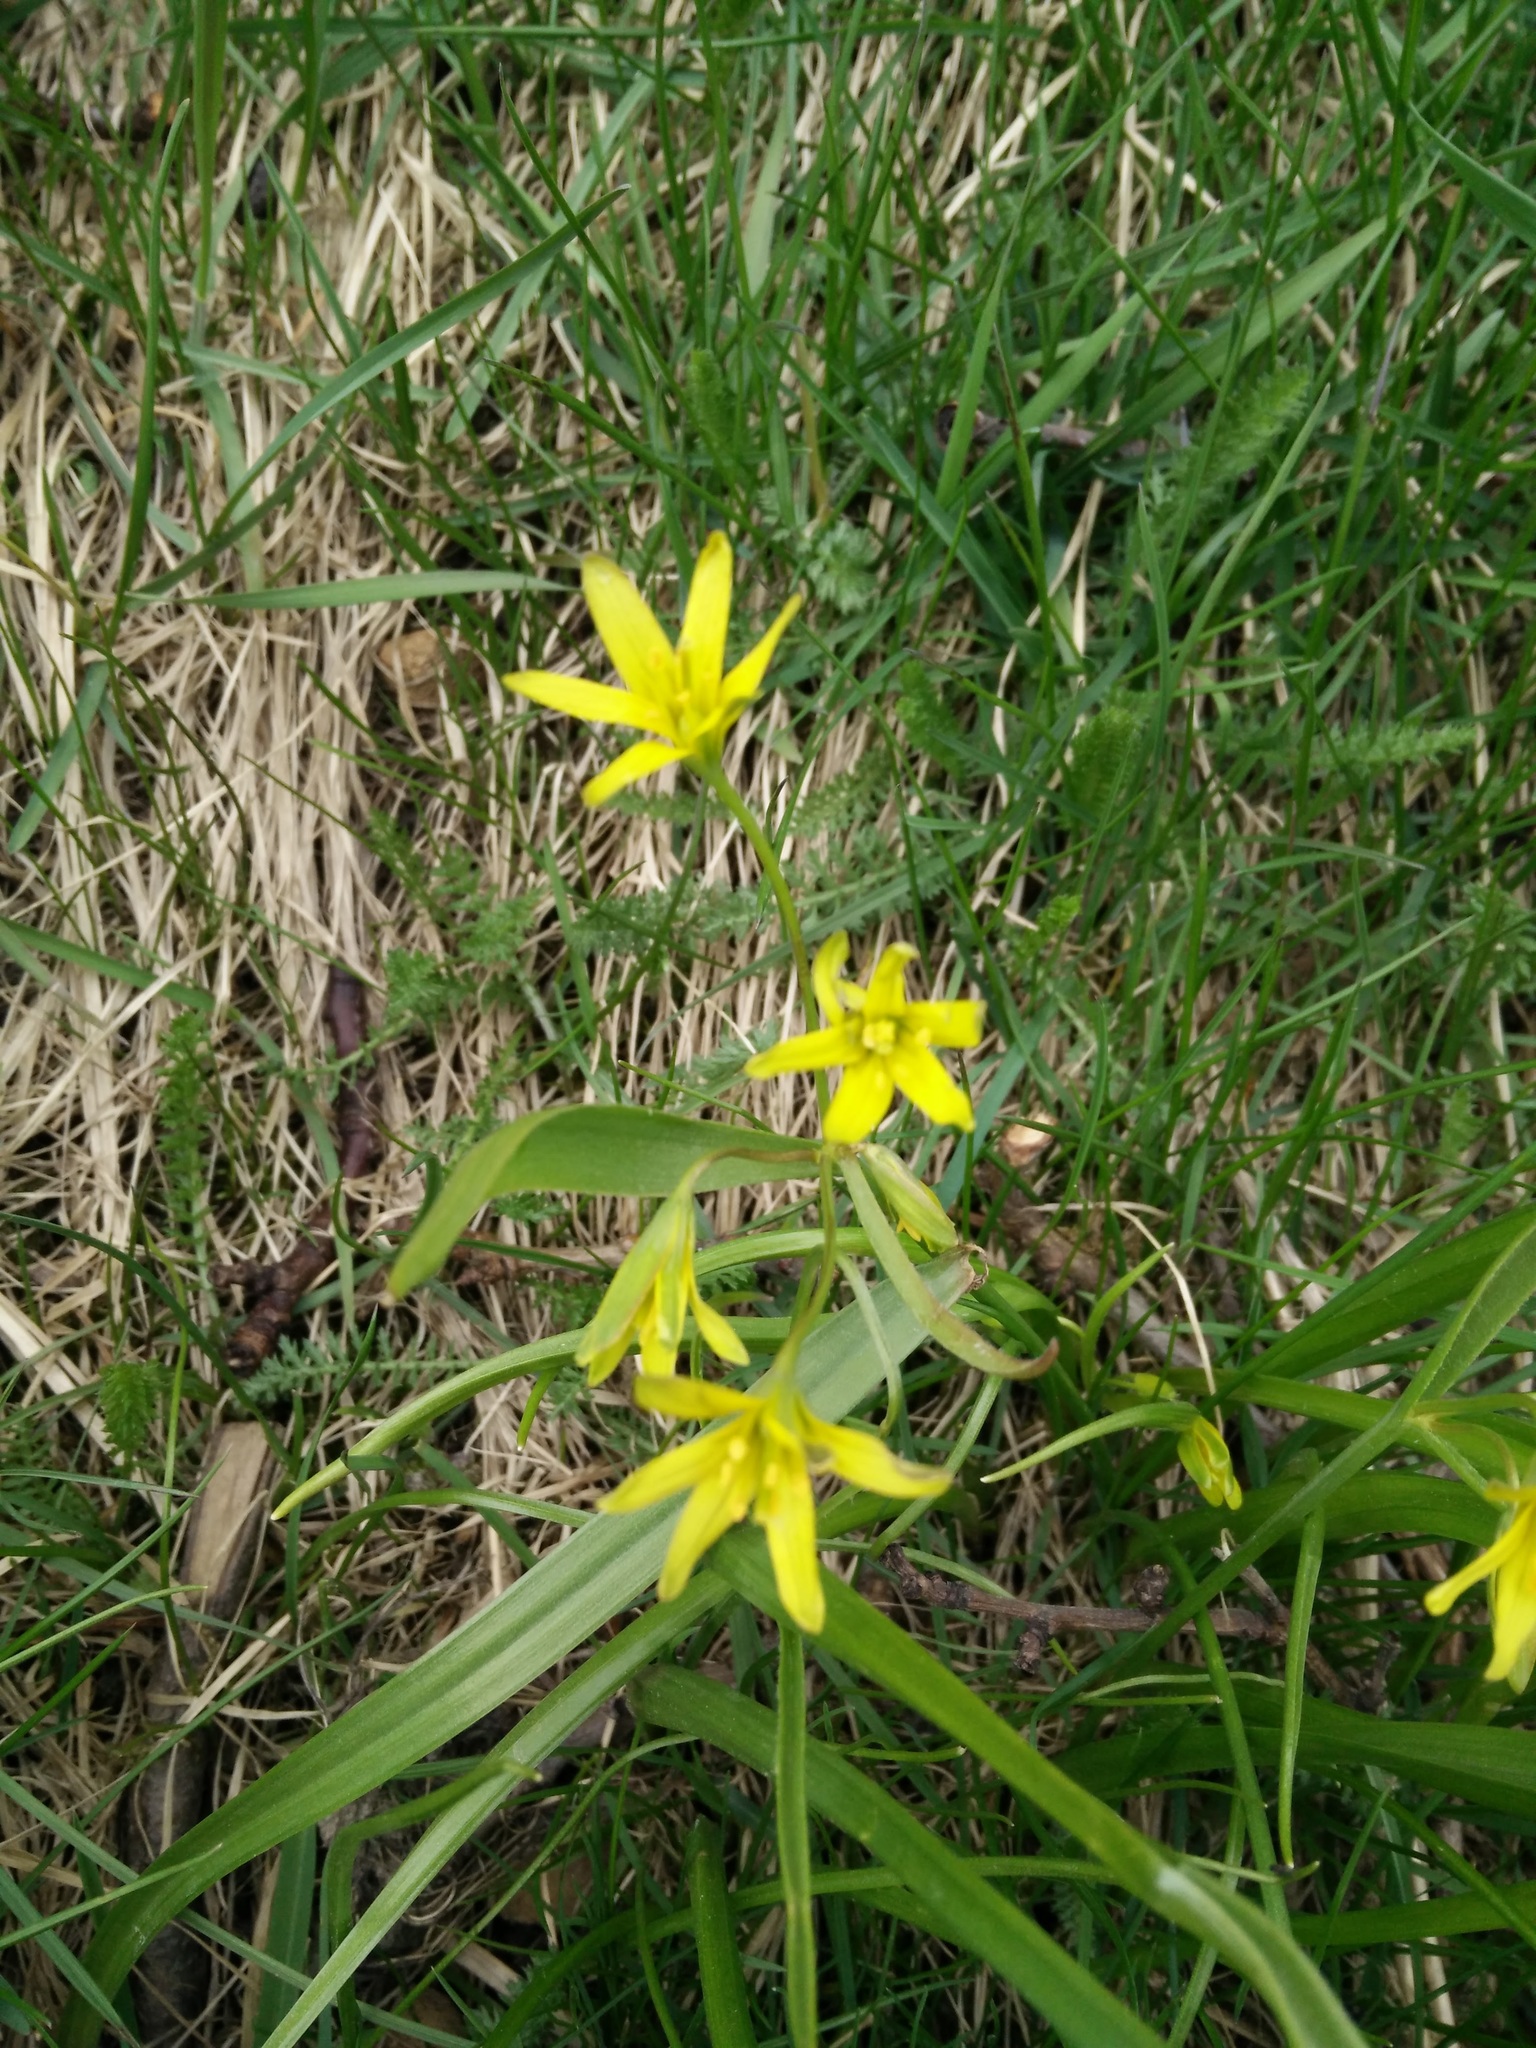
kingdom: Plantae
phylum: Tracheophyta
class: Liliopsida
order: Liliales
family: Liliaceae
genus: Gagea
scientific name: Gagea lutea
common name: Yellow star-of-bethlehem
